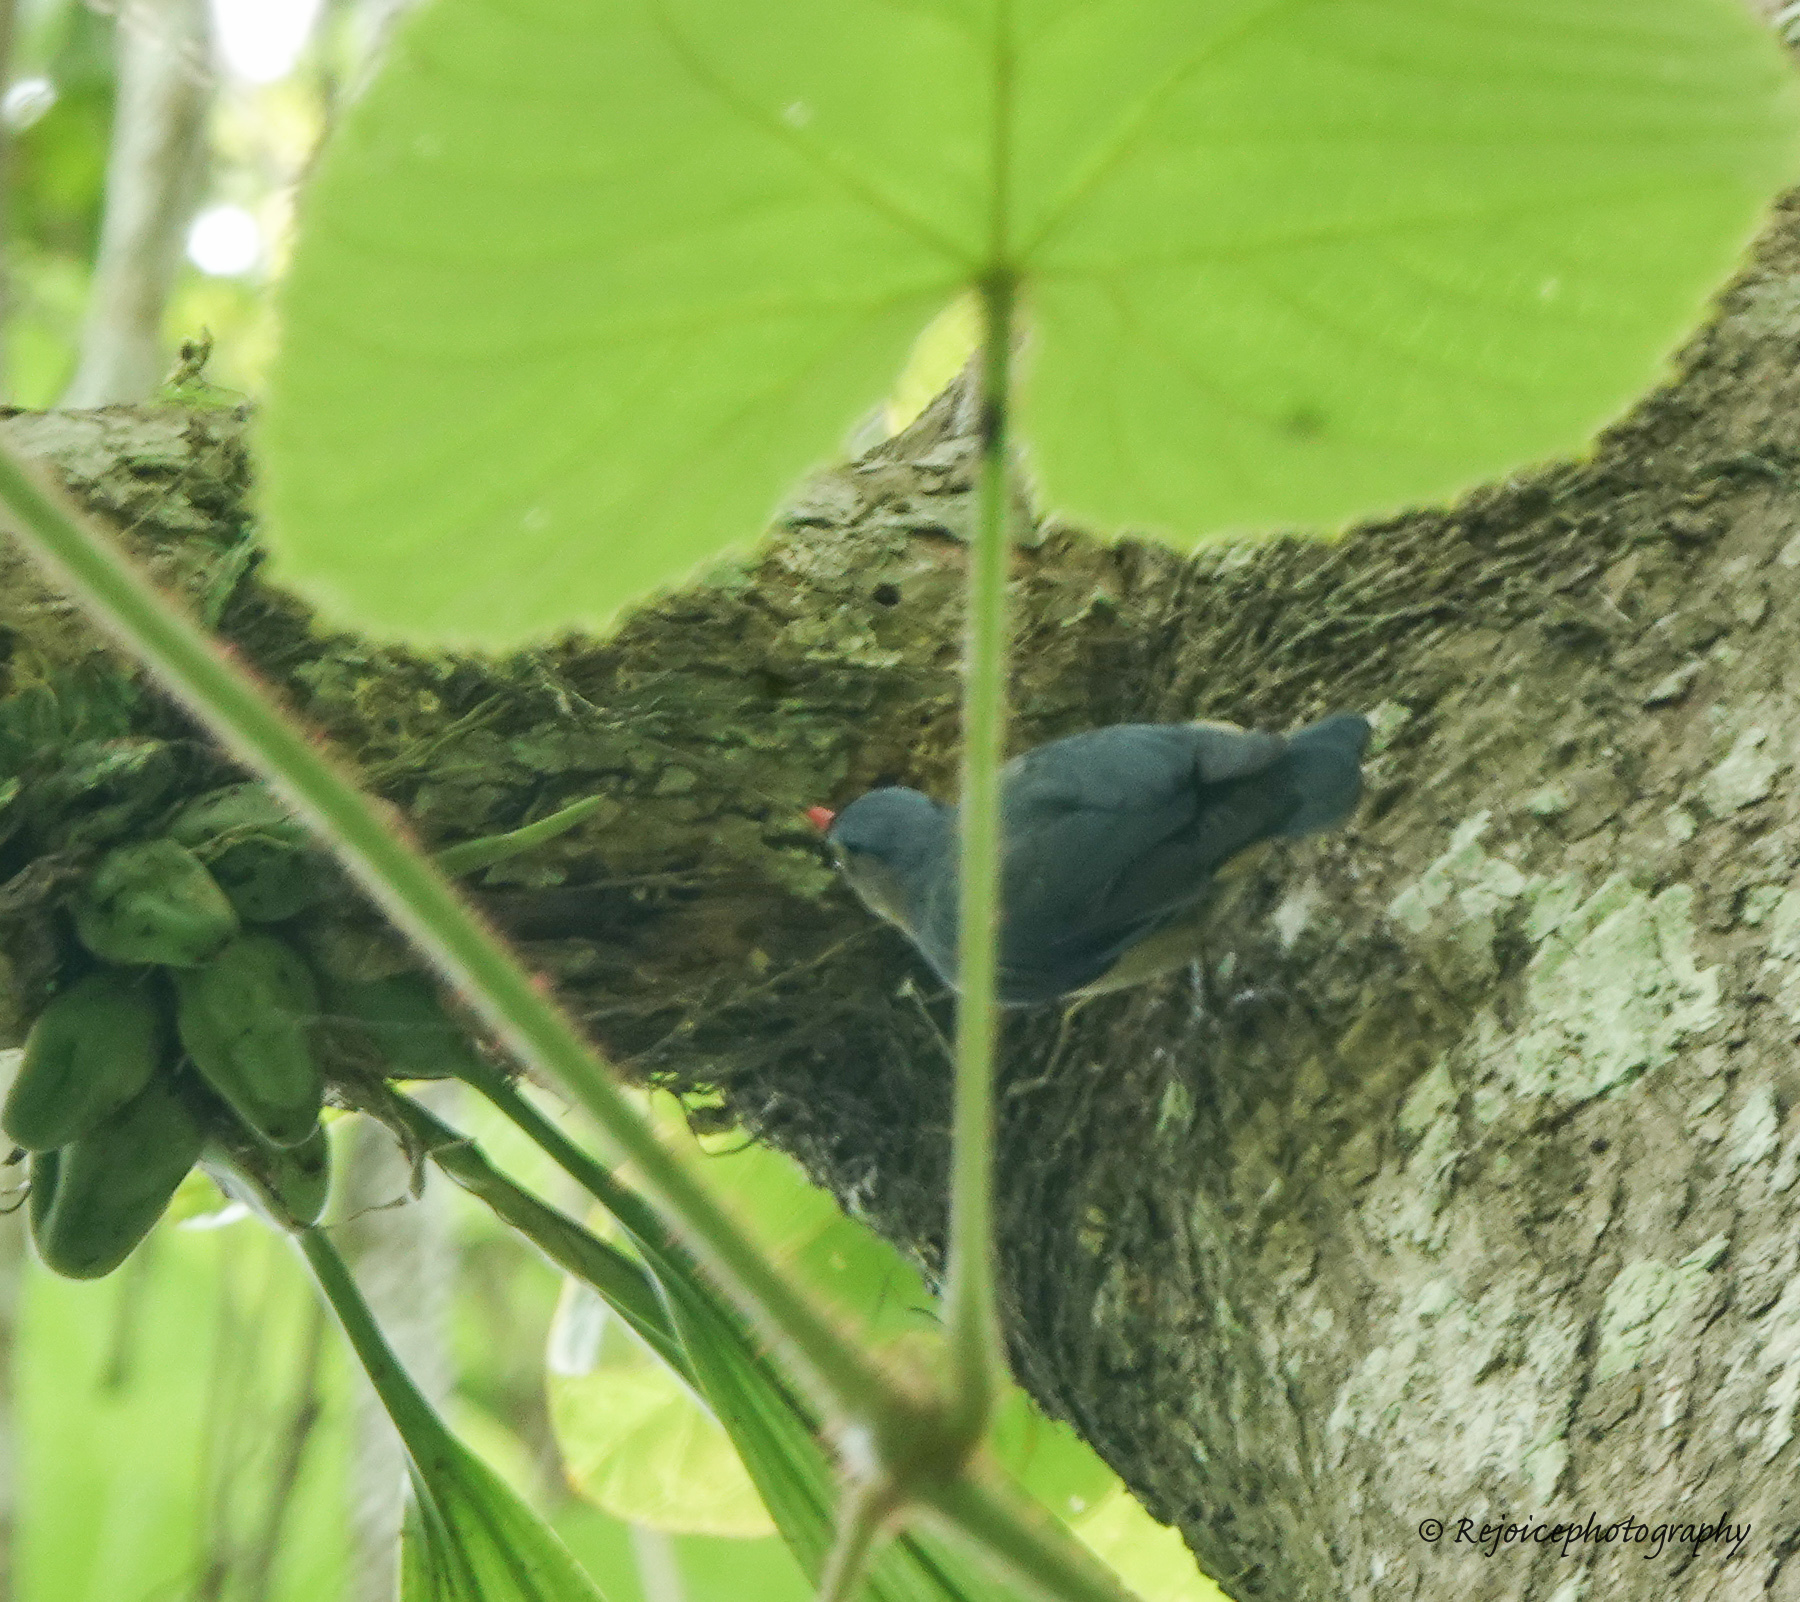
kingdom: Animalia
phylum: Chordata
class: Aves
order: Passeriformes
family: Sittidae
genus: Sitta
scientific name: Sitta frontalis
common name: Velvet-fronted nuthatch
